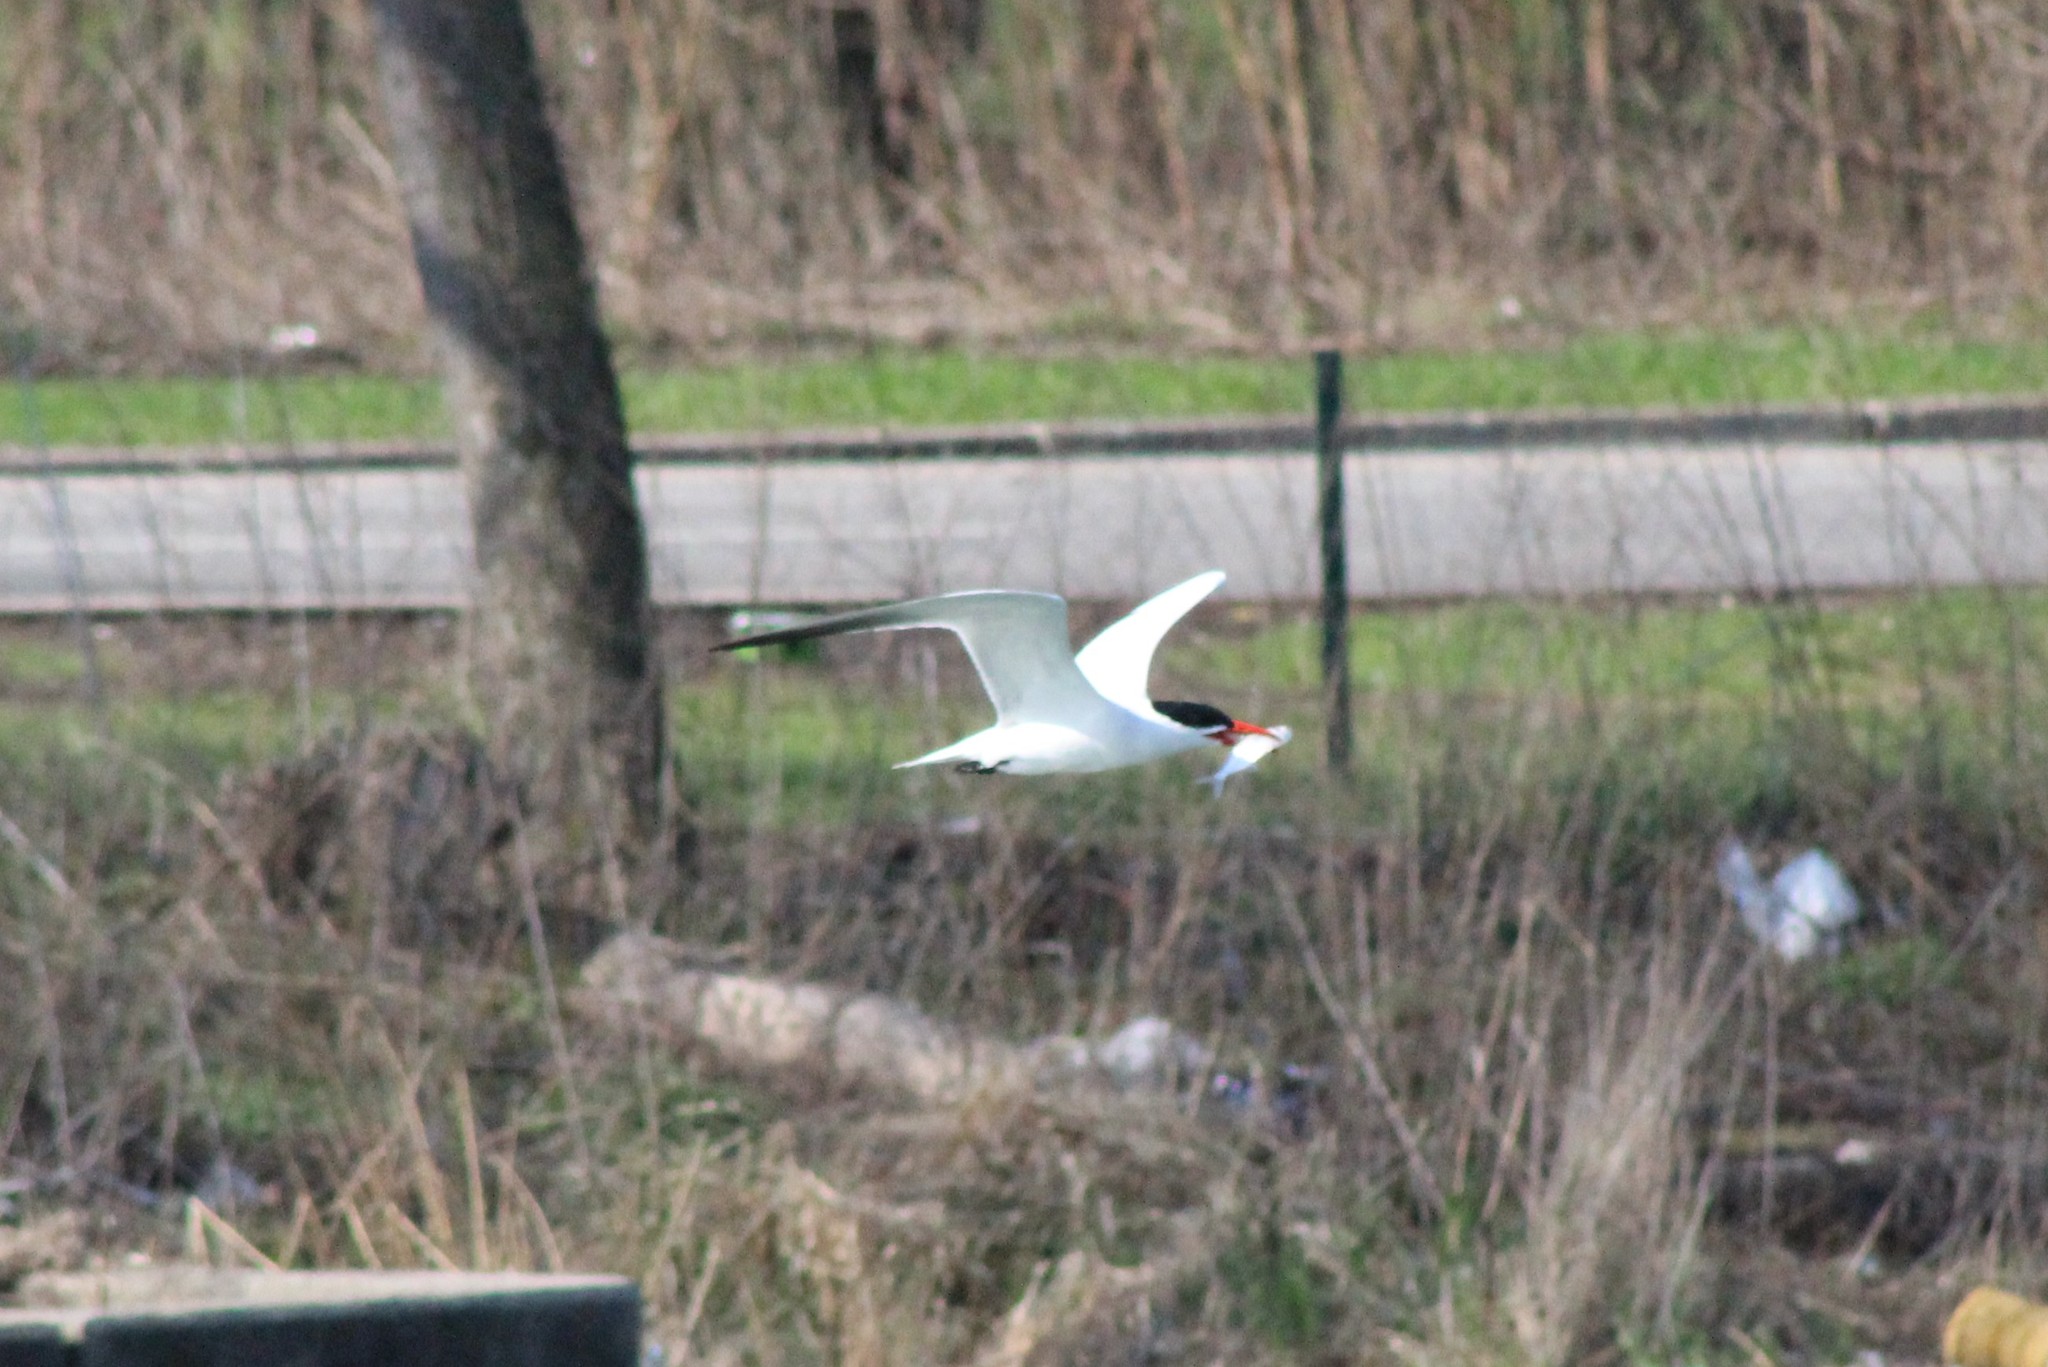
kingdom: Animalia
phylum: Chordata
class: Aves
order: Charadriiformes
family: Laridae
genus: Hydroprogne
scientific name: Hydroprogne caspia
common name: Caspian tern
